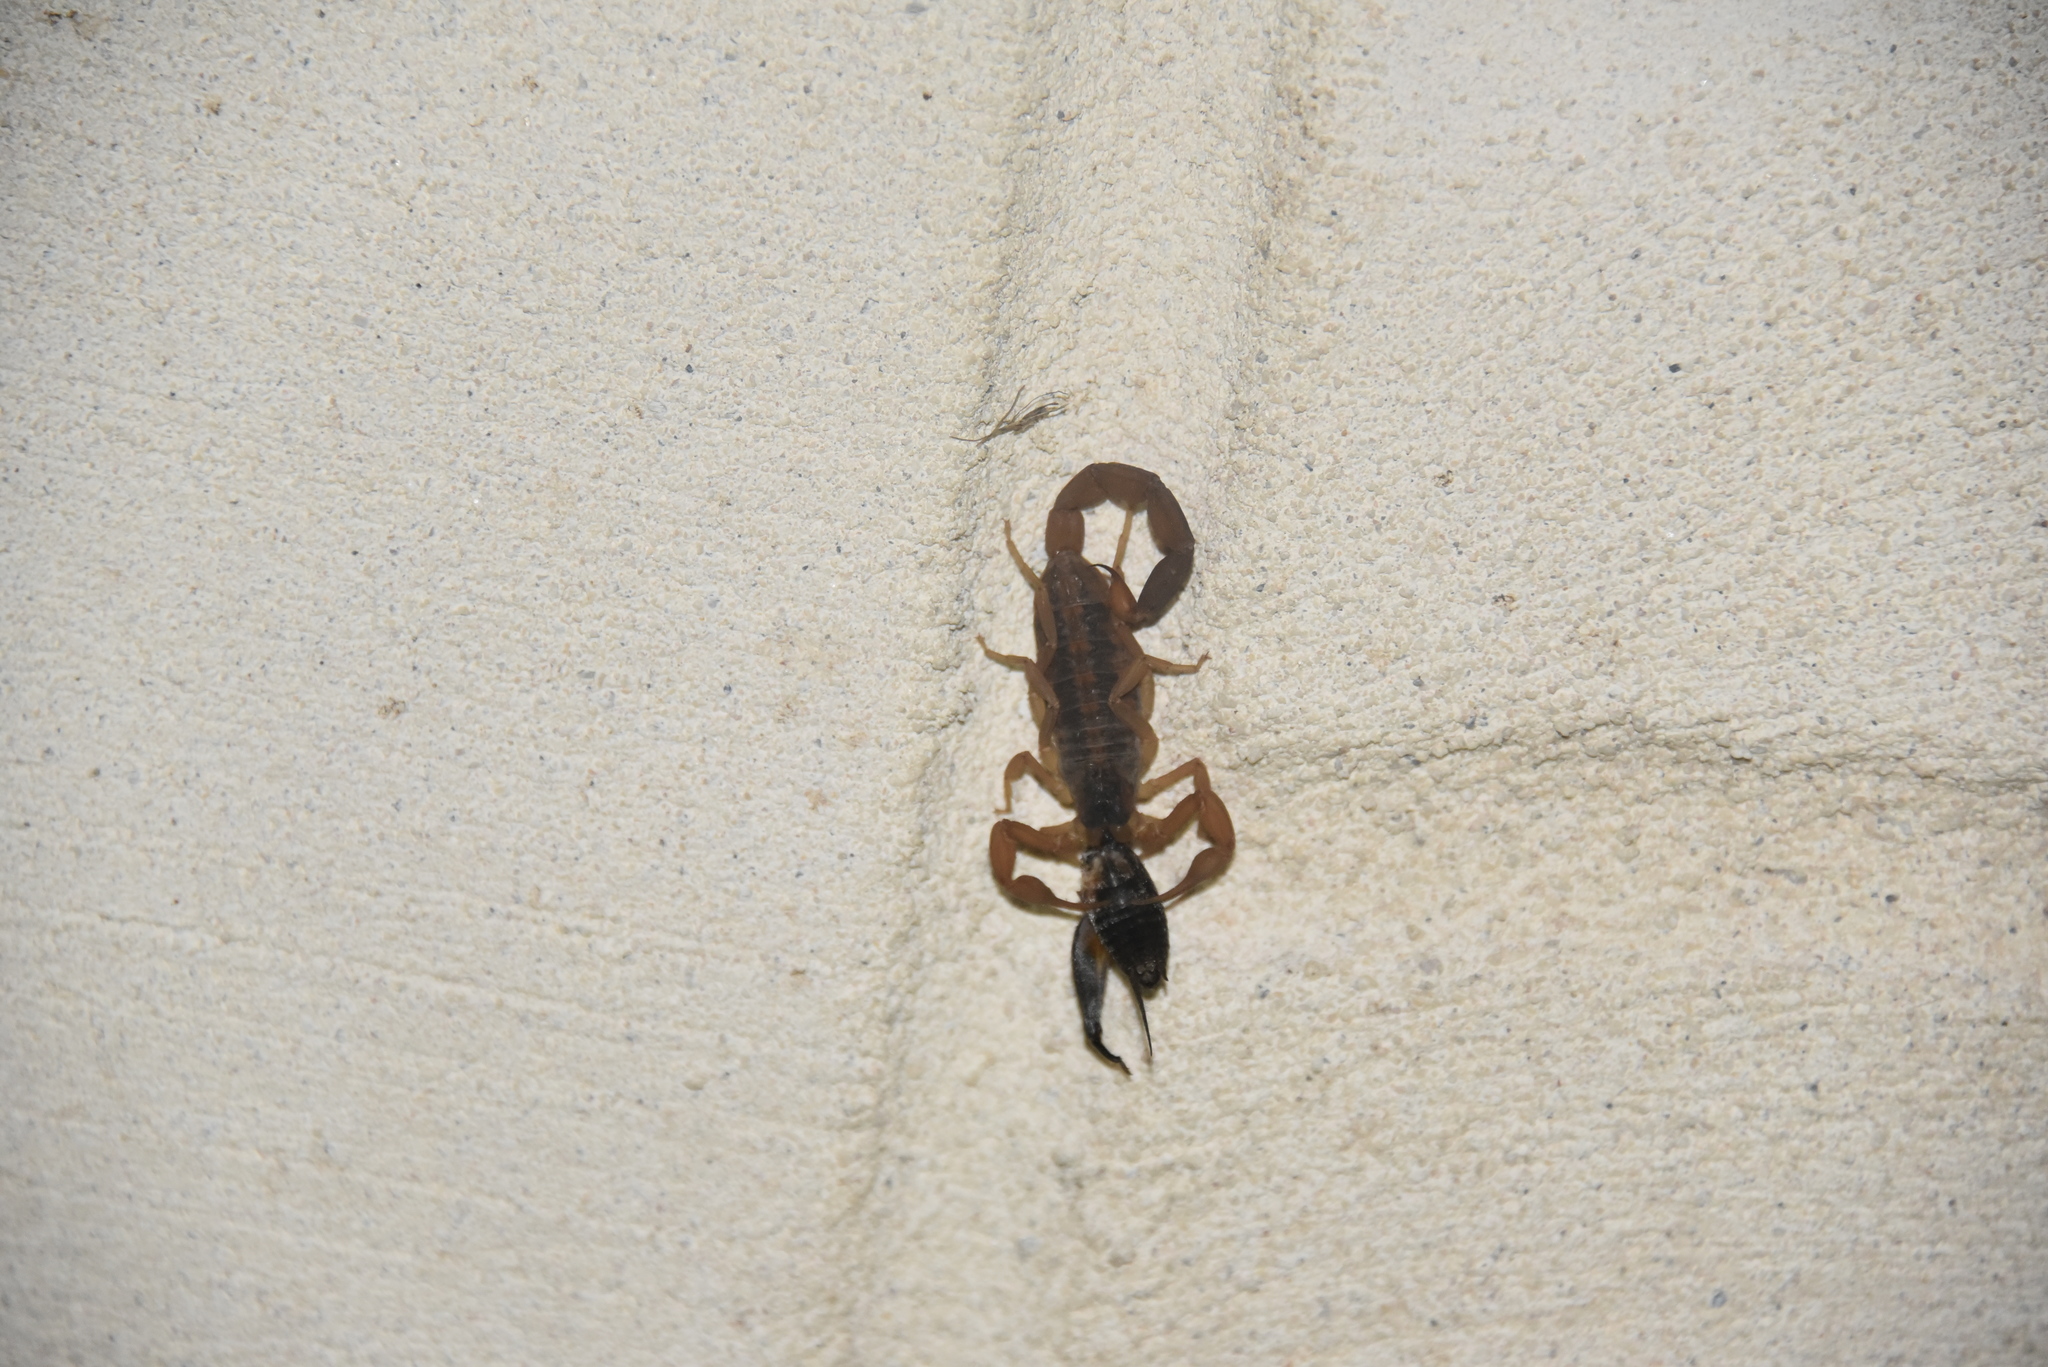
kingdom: Animalia
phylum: Arthropoda
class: Arachnida
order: Scorpiones
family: Buthidae
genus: Centruroides
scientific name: Centruroides vittatus
